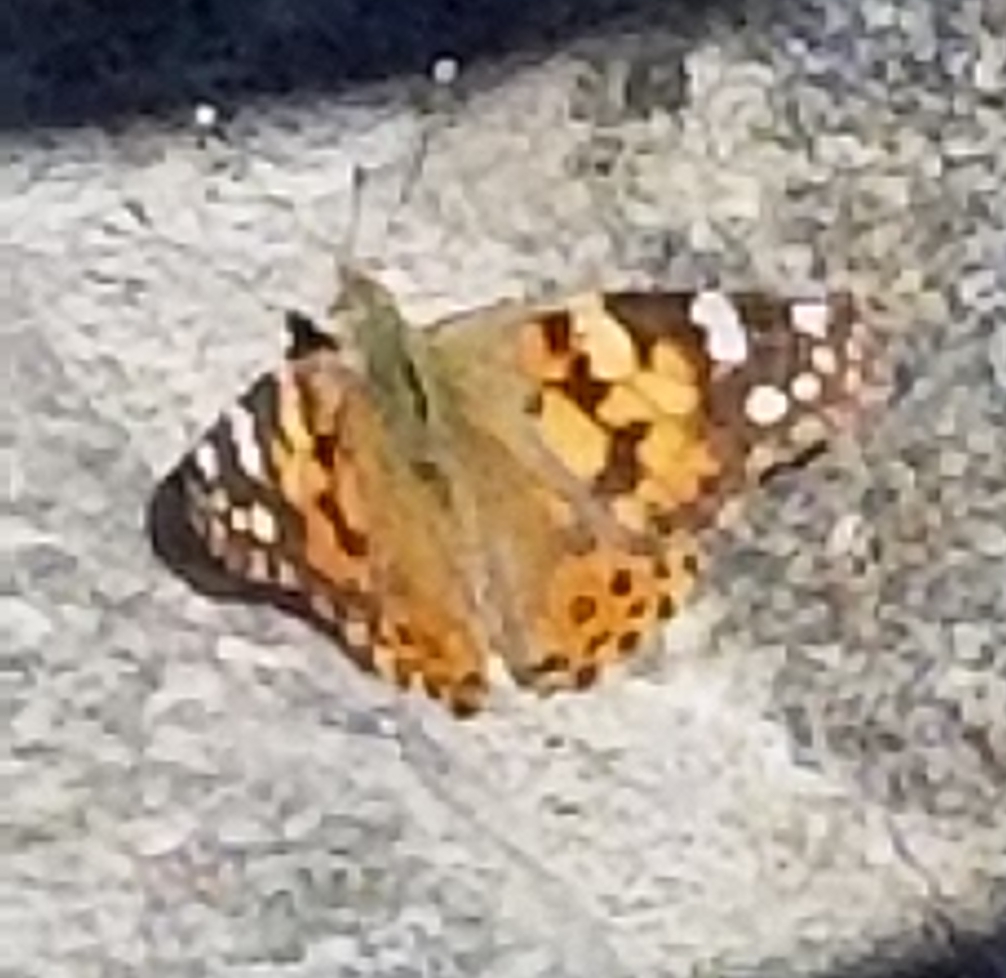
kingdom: Animalia
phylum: Arthropoda
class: Insecta
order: Lepidoptera
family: Nymphalidae
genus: Vanessa
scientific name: Vanessa cardui
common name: Painted lady
